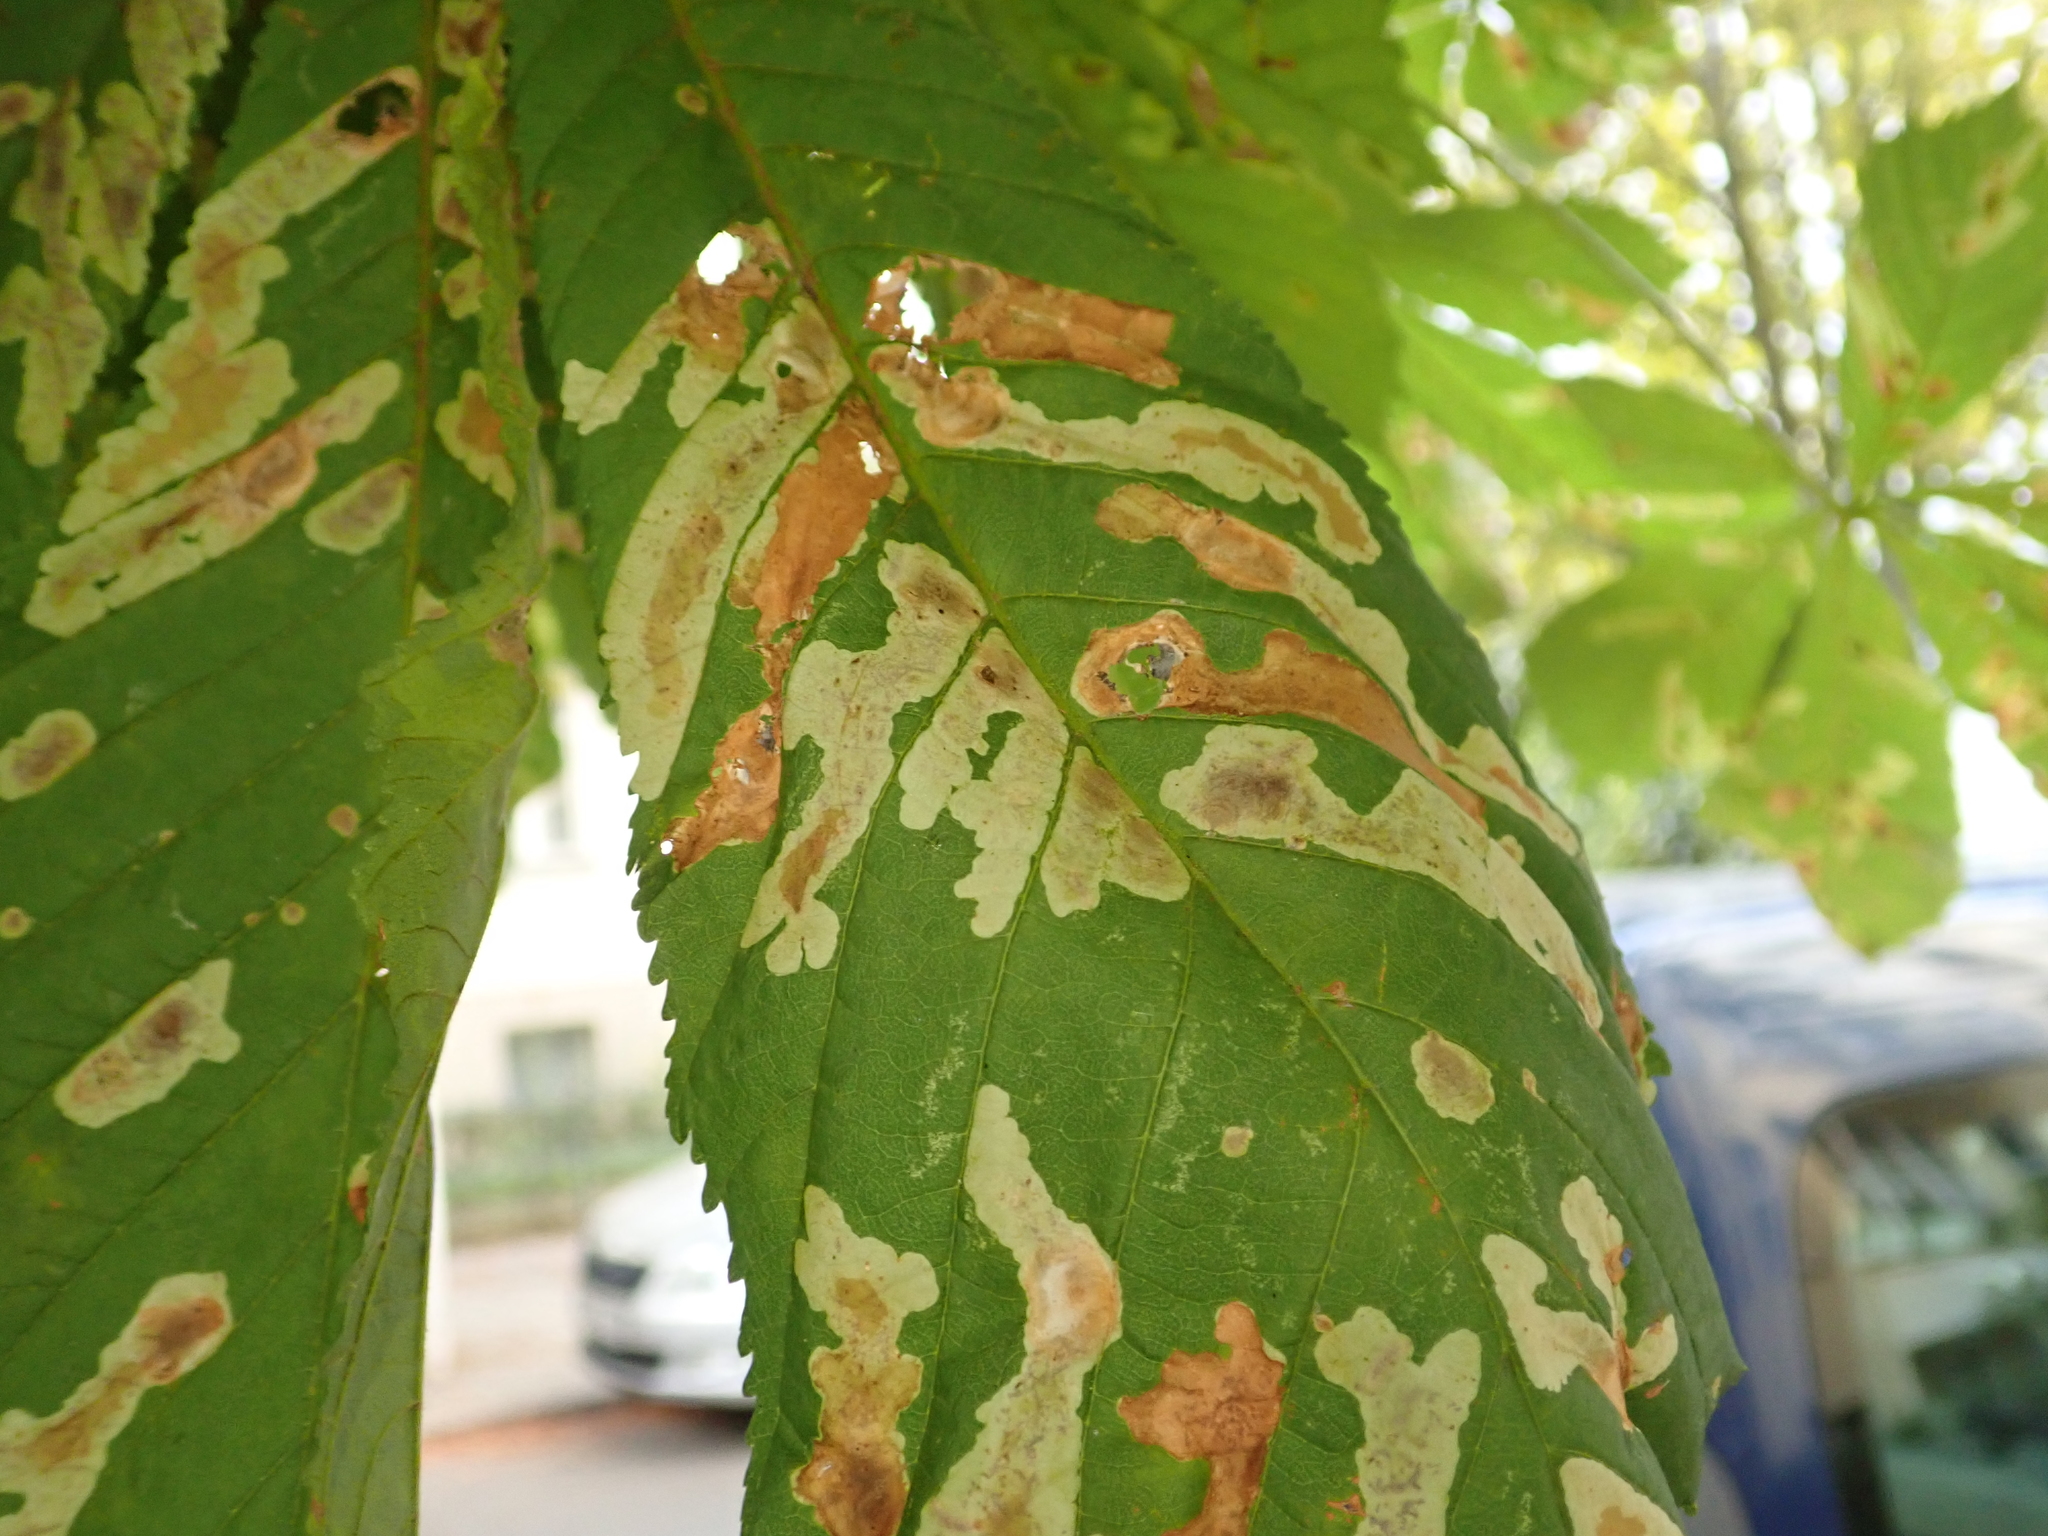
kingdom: Animalia
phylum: Arthropoda
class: Insecta
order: Lepidoptera
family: Gracillariidae
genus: Cameraria
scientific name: Cameraria ohridella
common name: Horse-chestnut leaf-miner
